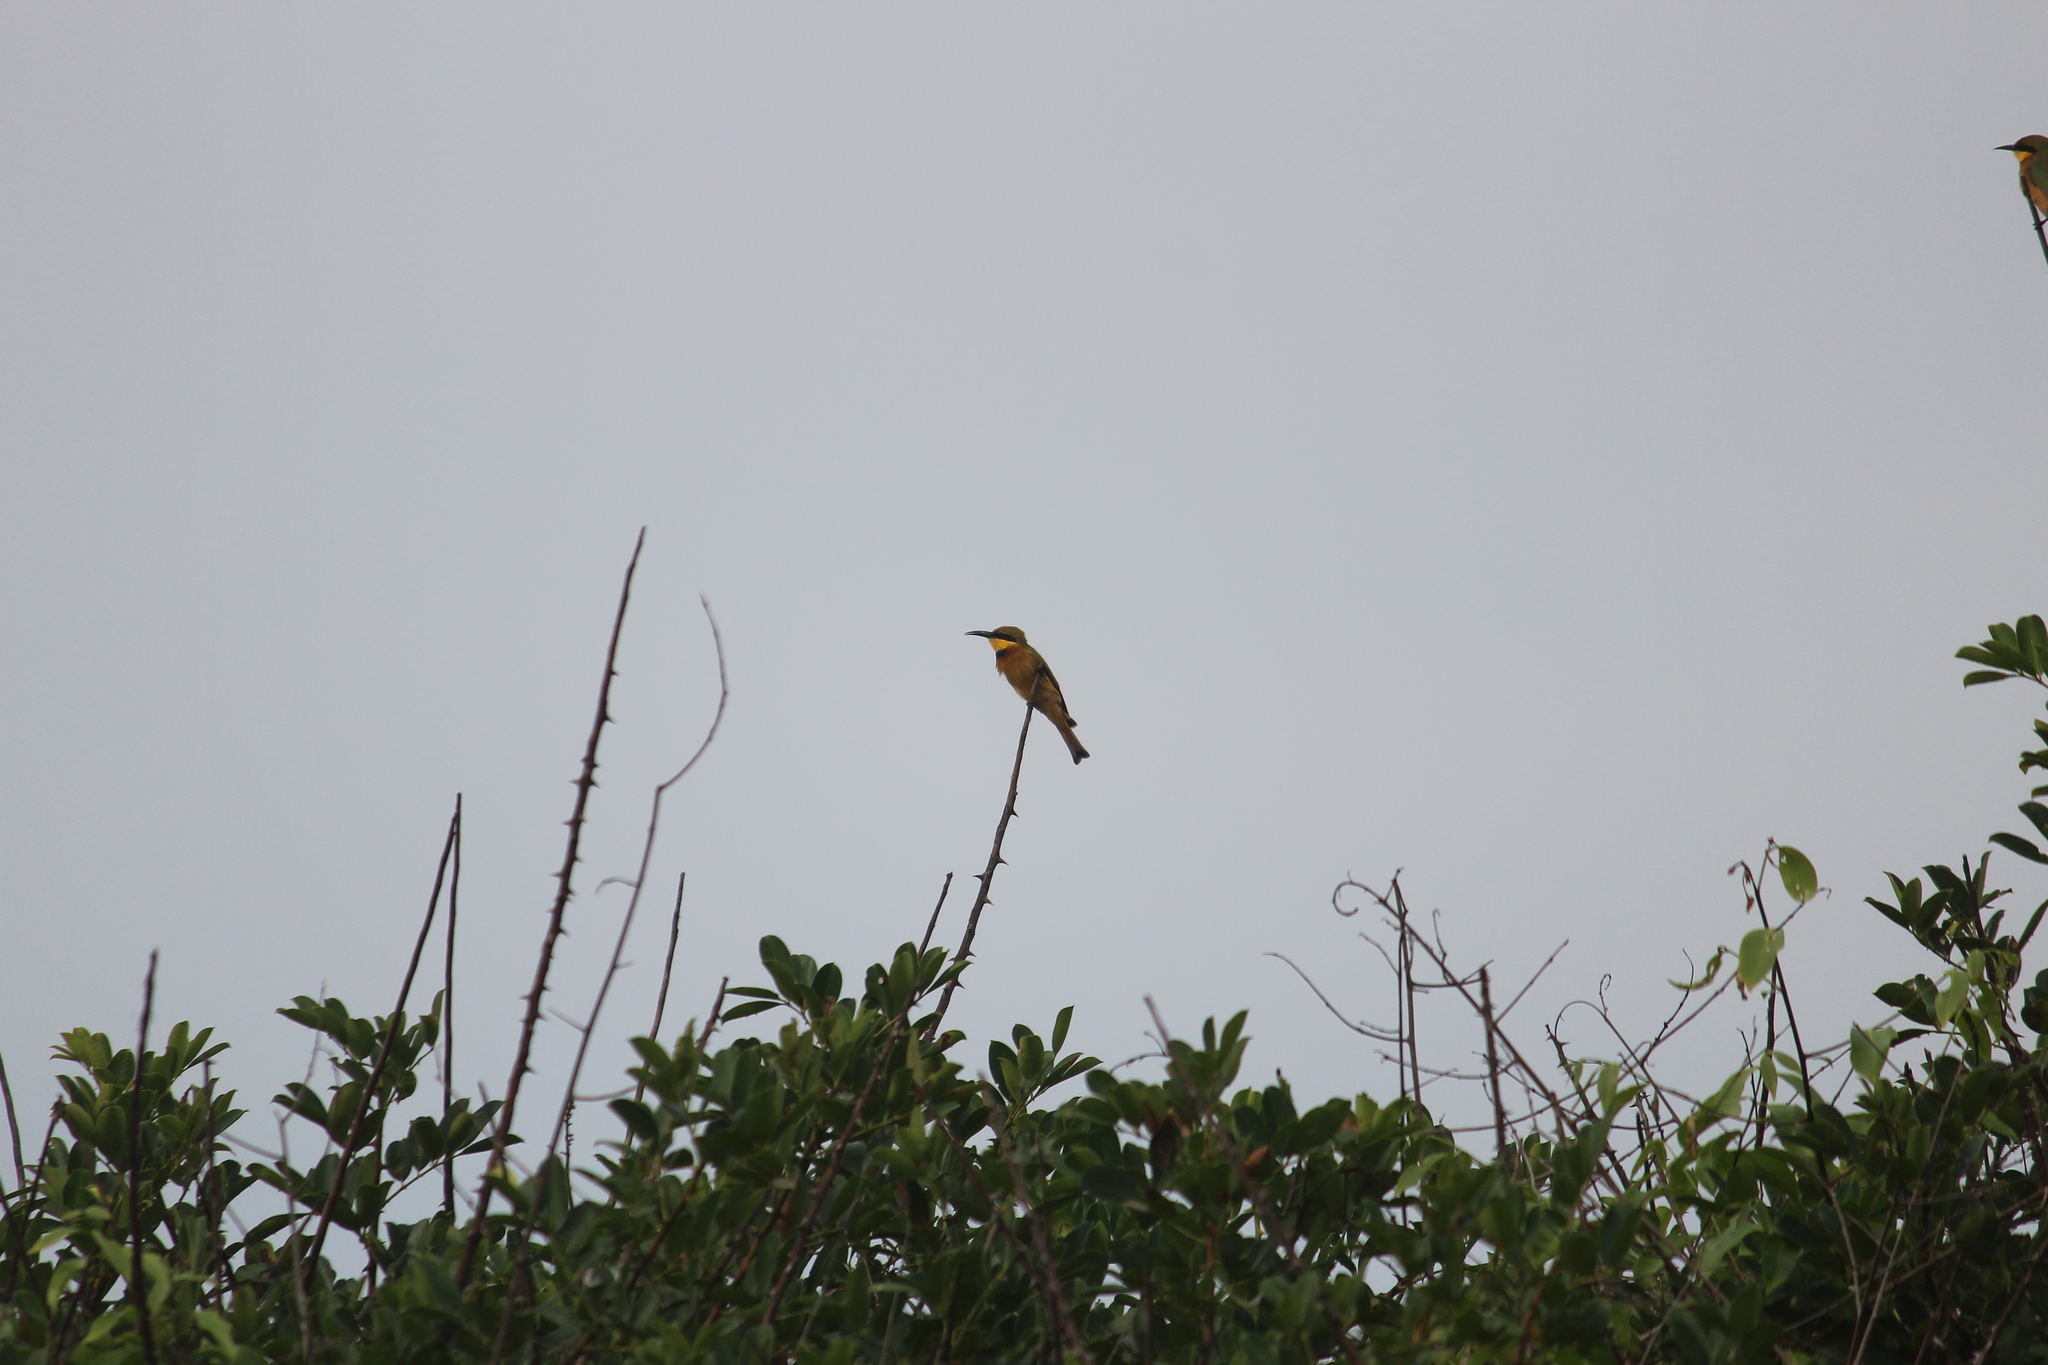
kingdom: Animalia
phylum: Chordata
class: Aves
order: Coraciiformes
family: Meropidae
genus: Merops
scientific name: Merops pusillus
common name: Little bee-eater
